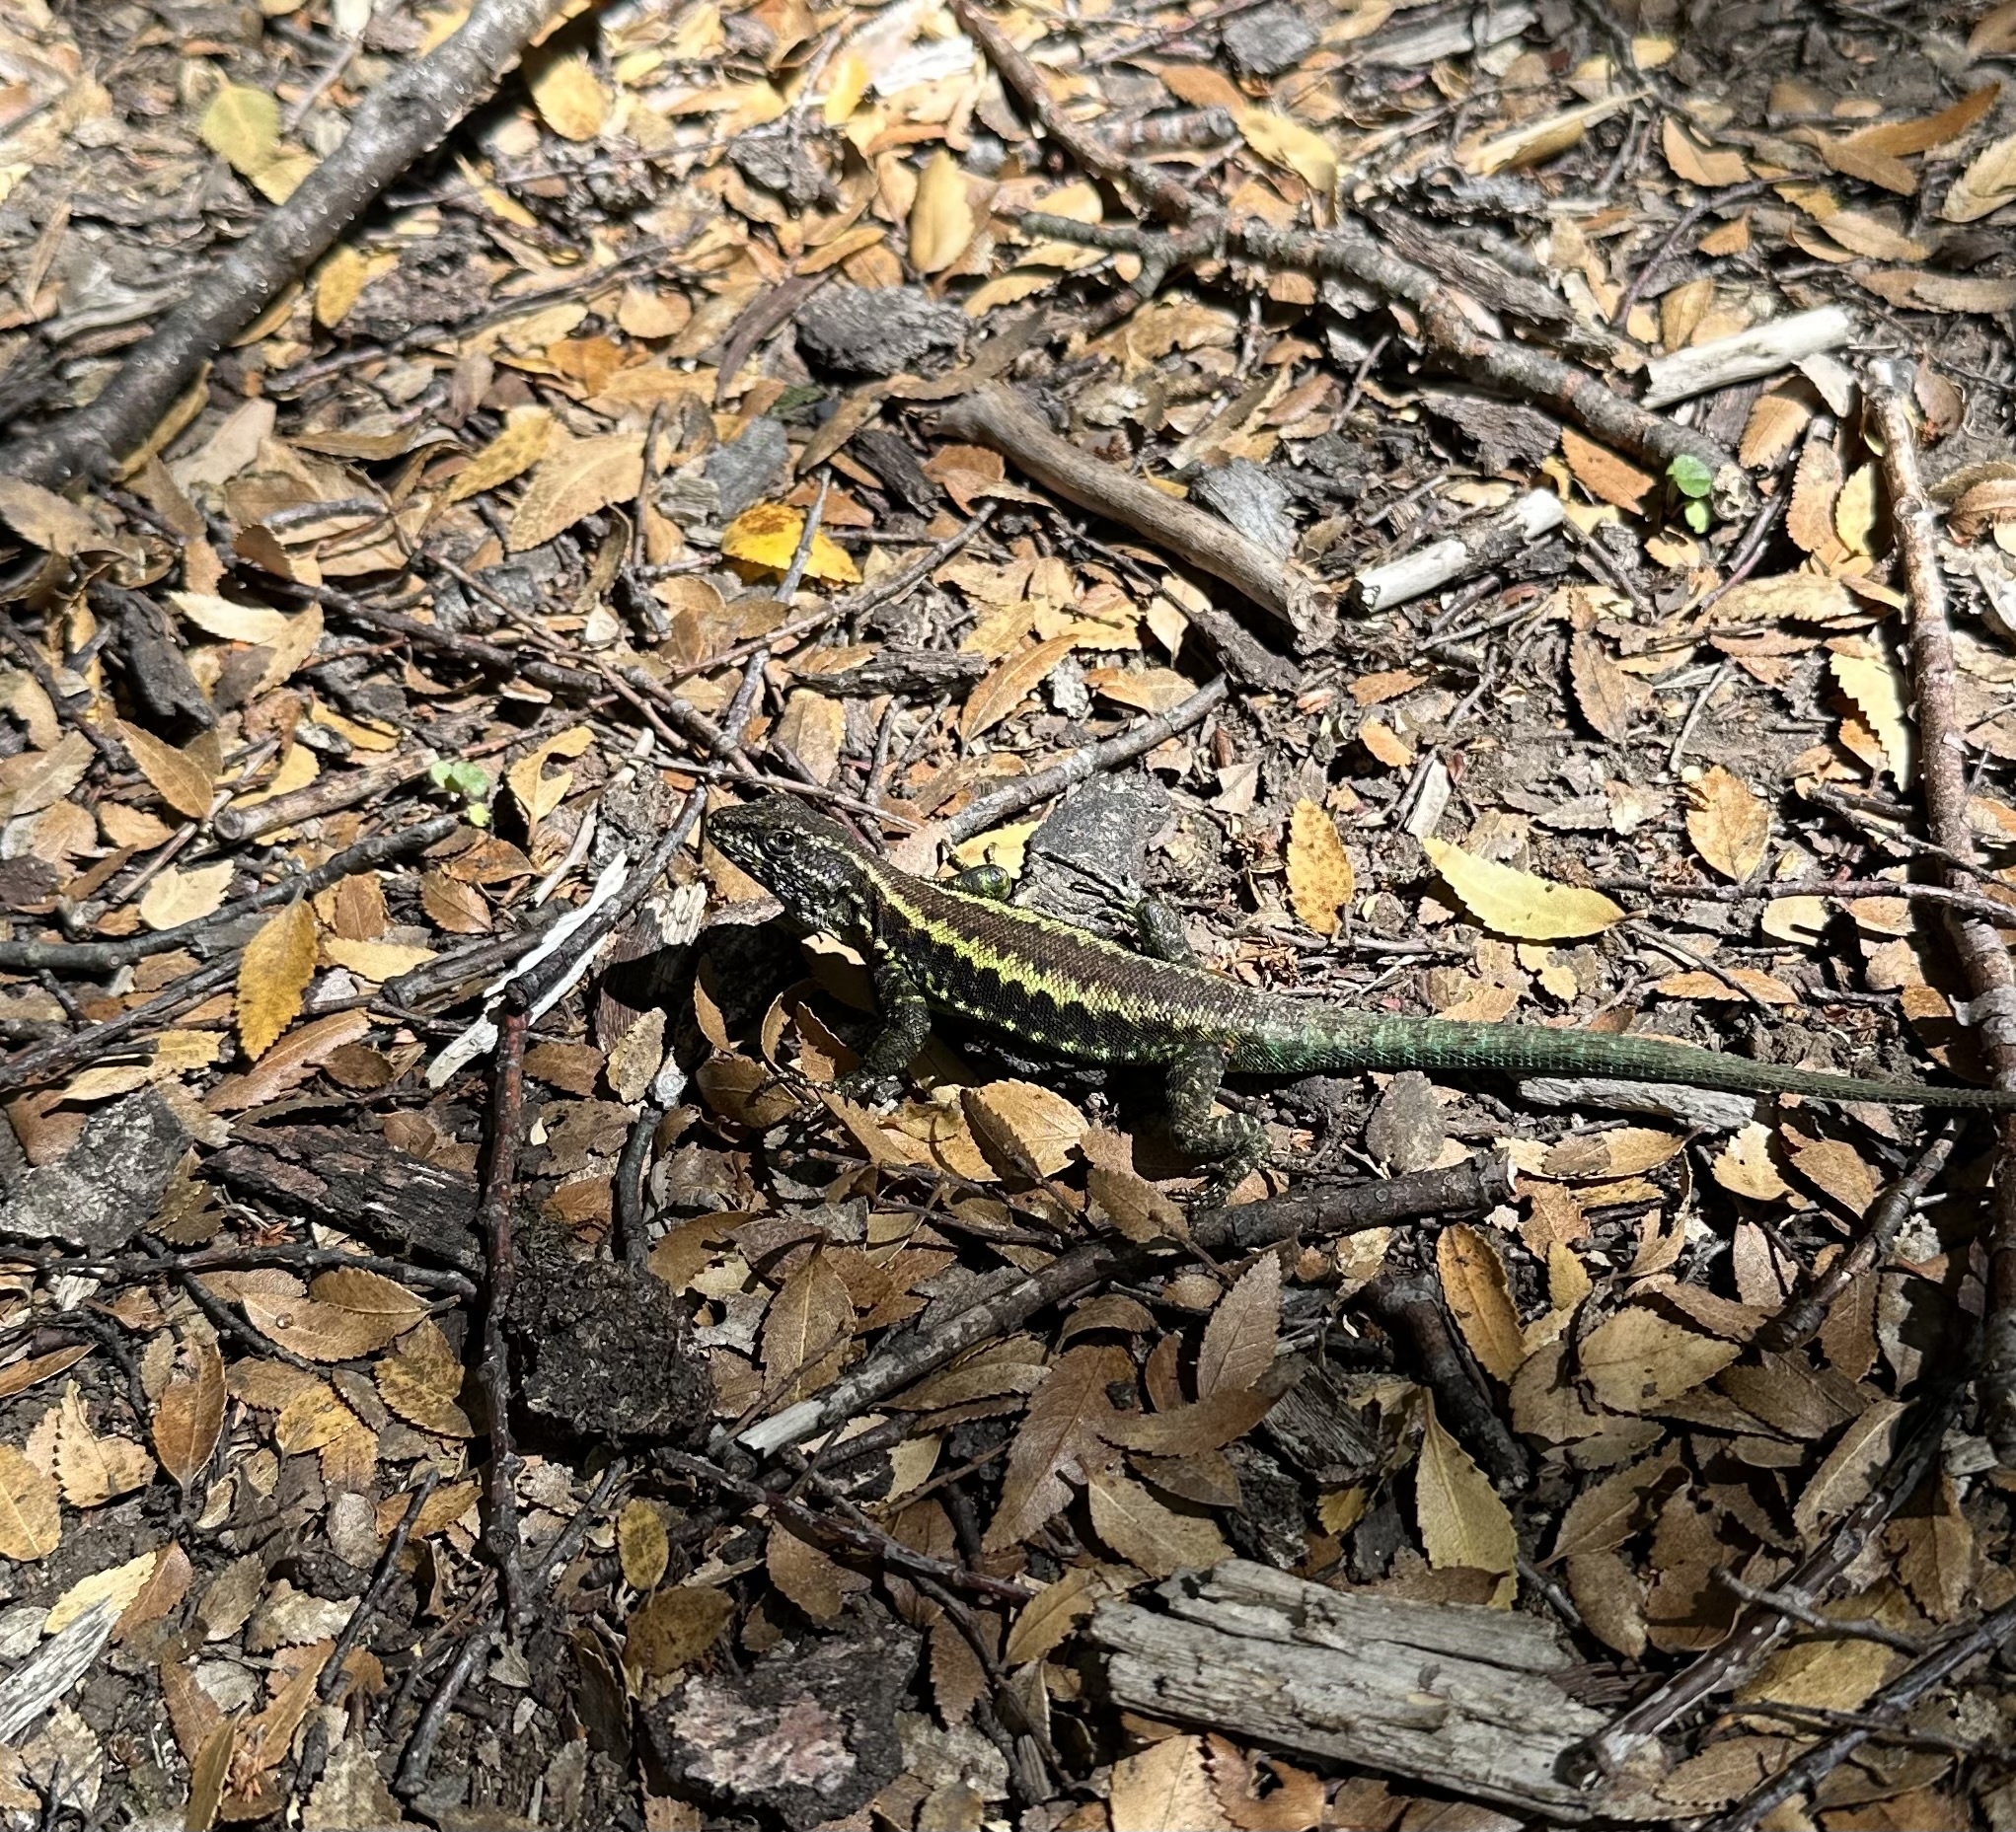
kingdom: Animalia
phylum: Chordata
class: Squamata
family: Liolaemidae
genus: Liolaemus
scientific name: Liolaemus pictus
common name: Painted tree iguana
